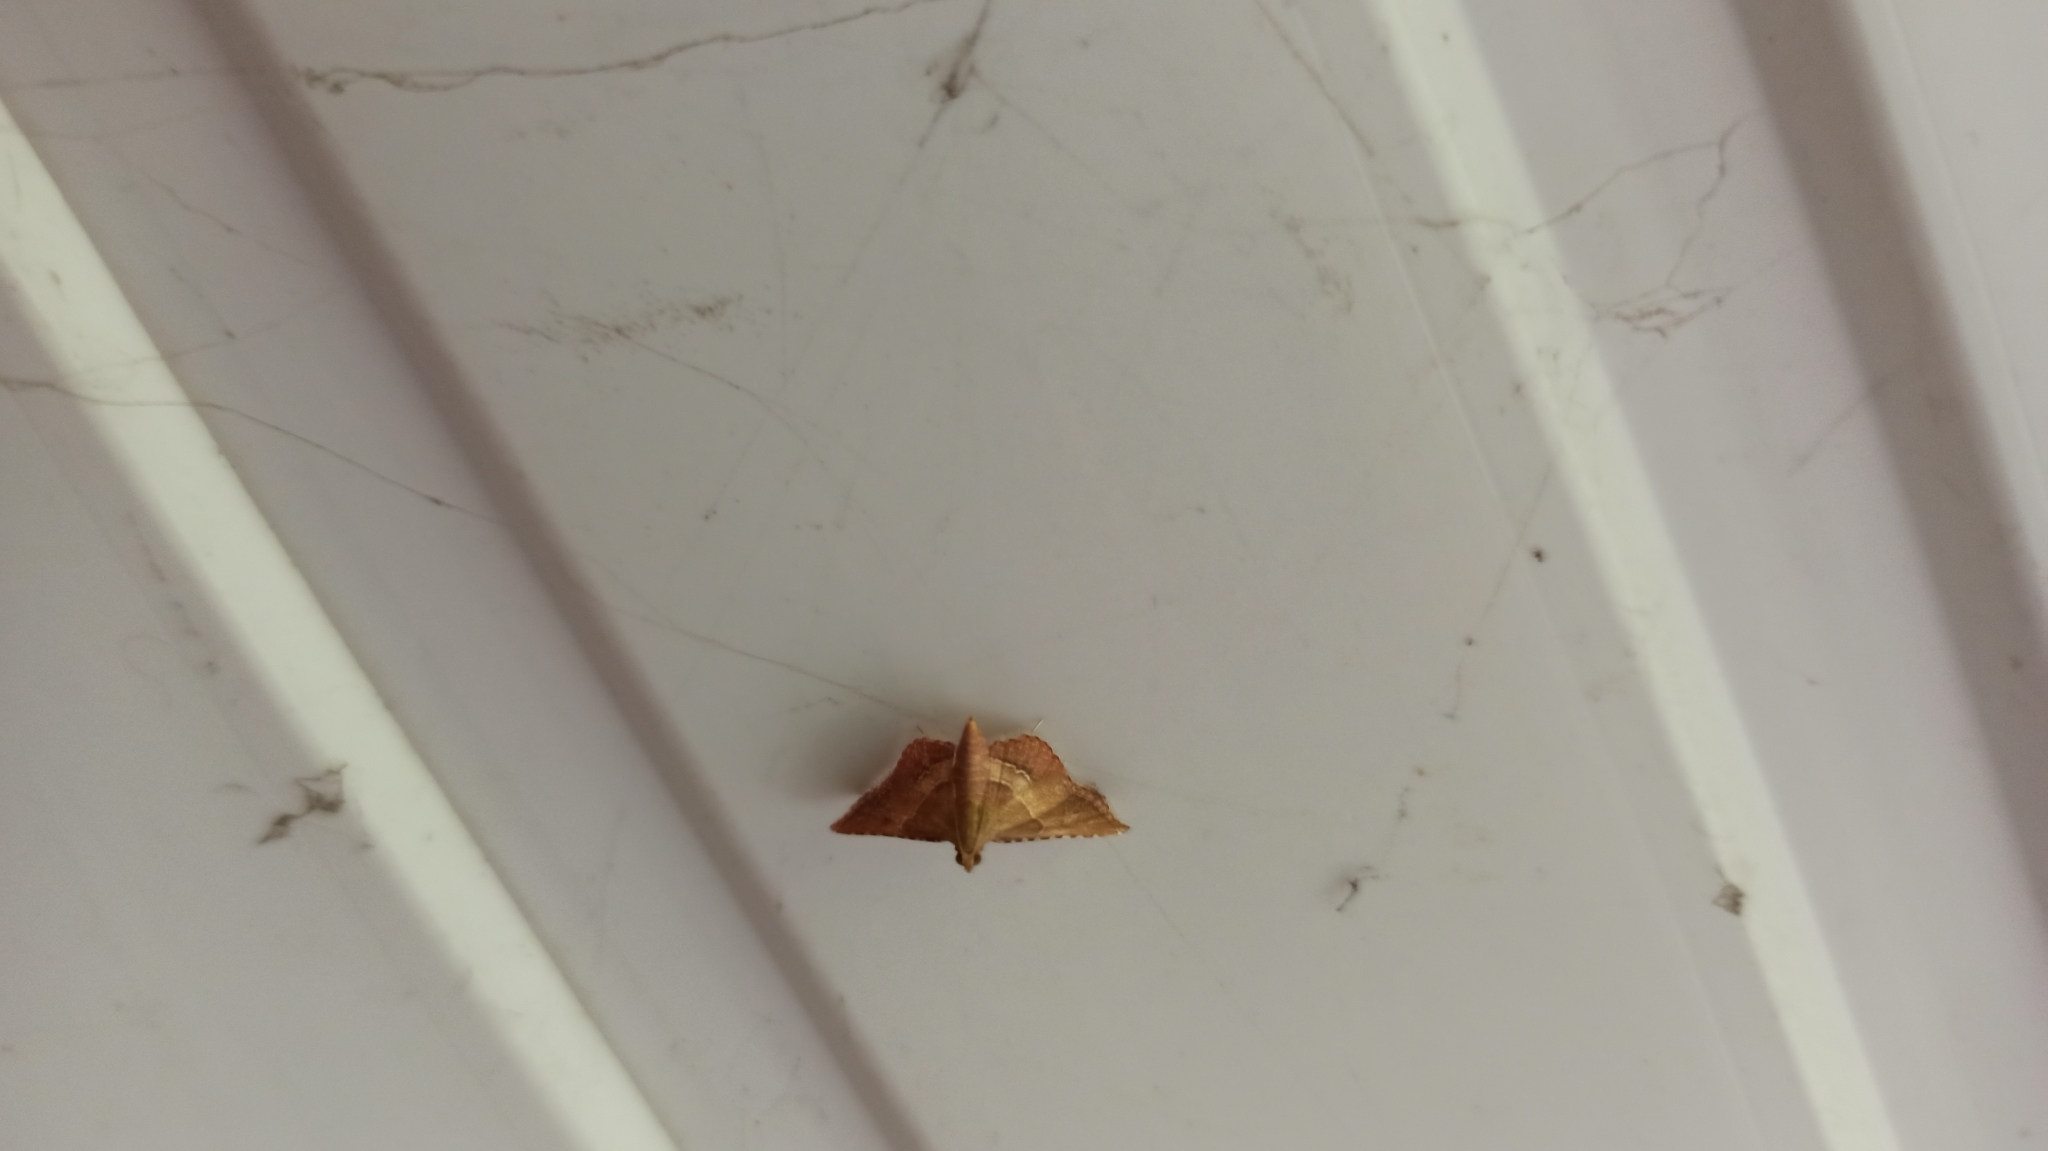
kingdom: Animalia
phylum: Arthropoda
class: Insecta
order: Lepidoptera
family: Pyralidae
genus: Endotricha
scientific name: Endotricha flammealis
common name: Rosy tabby
